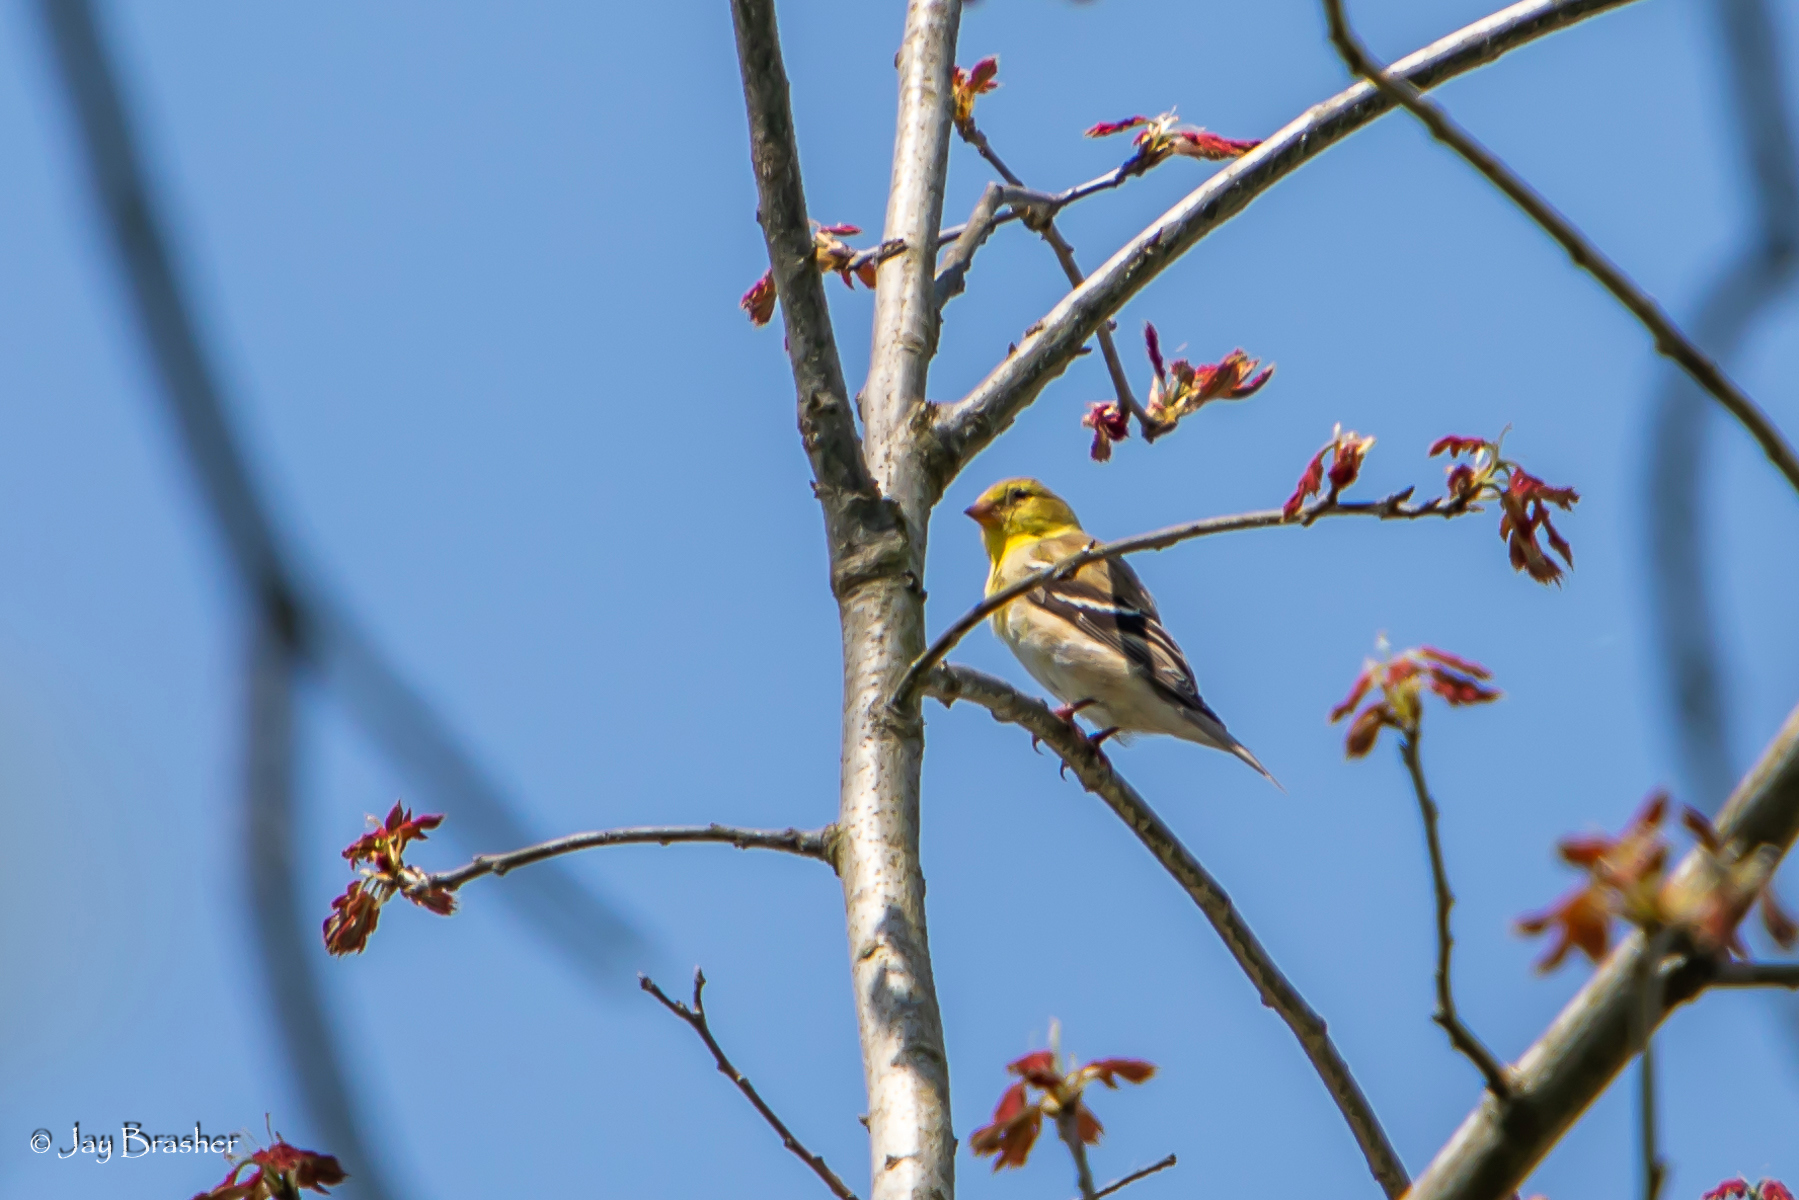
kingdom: Animalia
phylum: Chordata
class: Aves
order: Passeriformes
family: Fringillidae
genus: Spinus
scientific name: Spinus tristis
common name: American goldfinch
